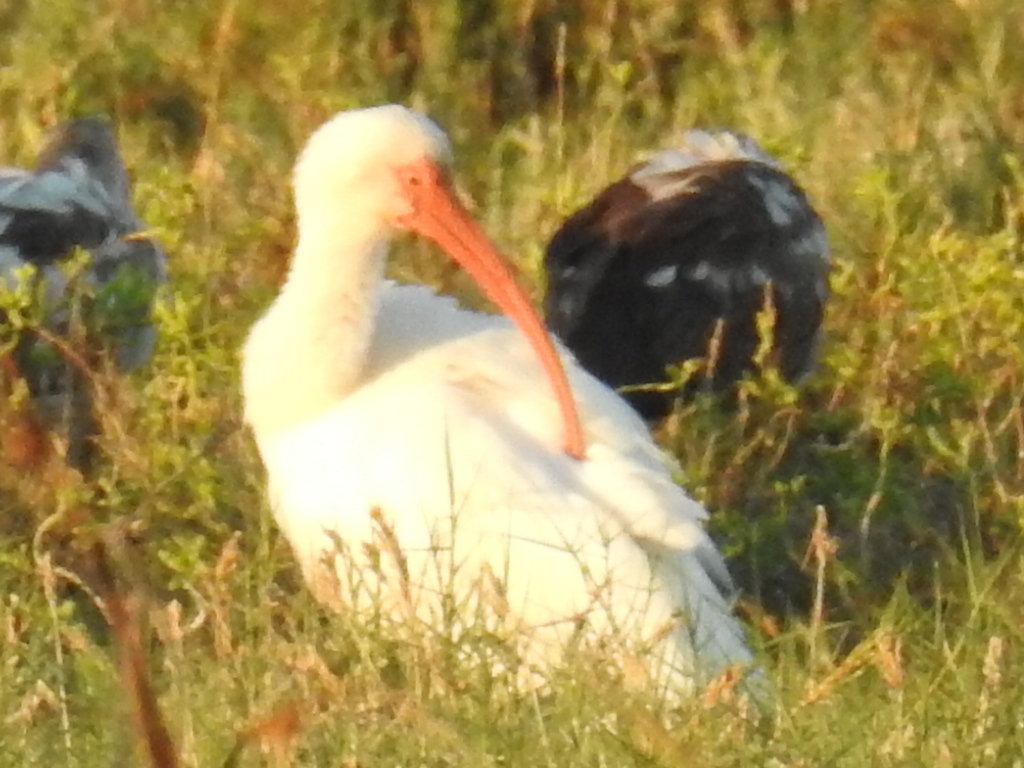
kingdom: Animalia
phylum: Chordata
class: Aves
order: Pelecaniformes
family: Threskiornithidae
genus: Eudocimus
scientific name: Eudocimus albus
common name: White ibis
